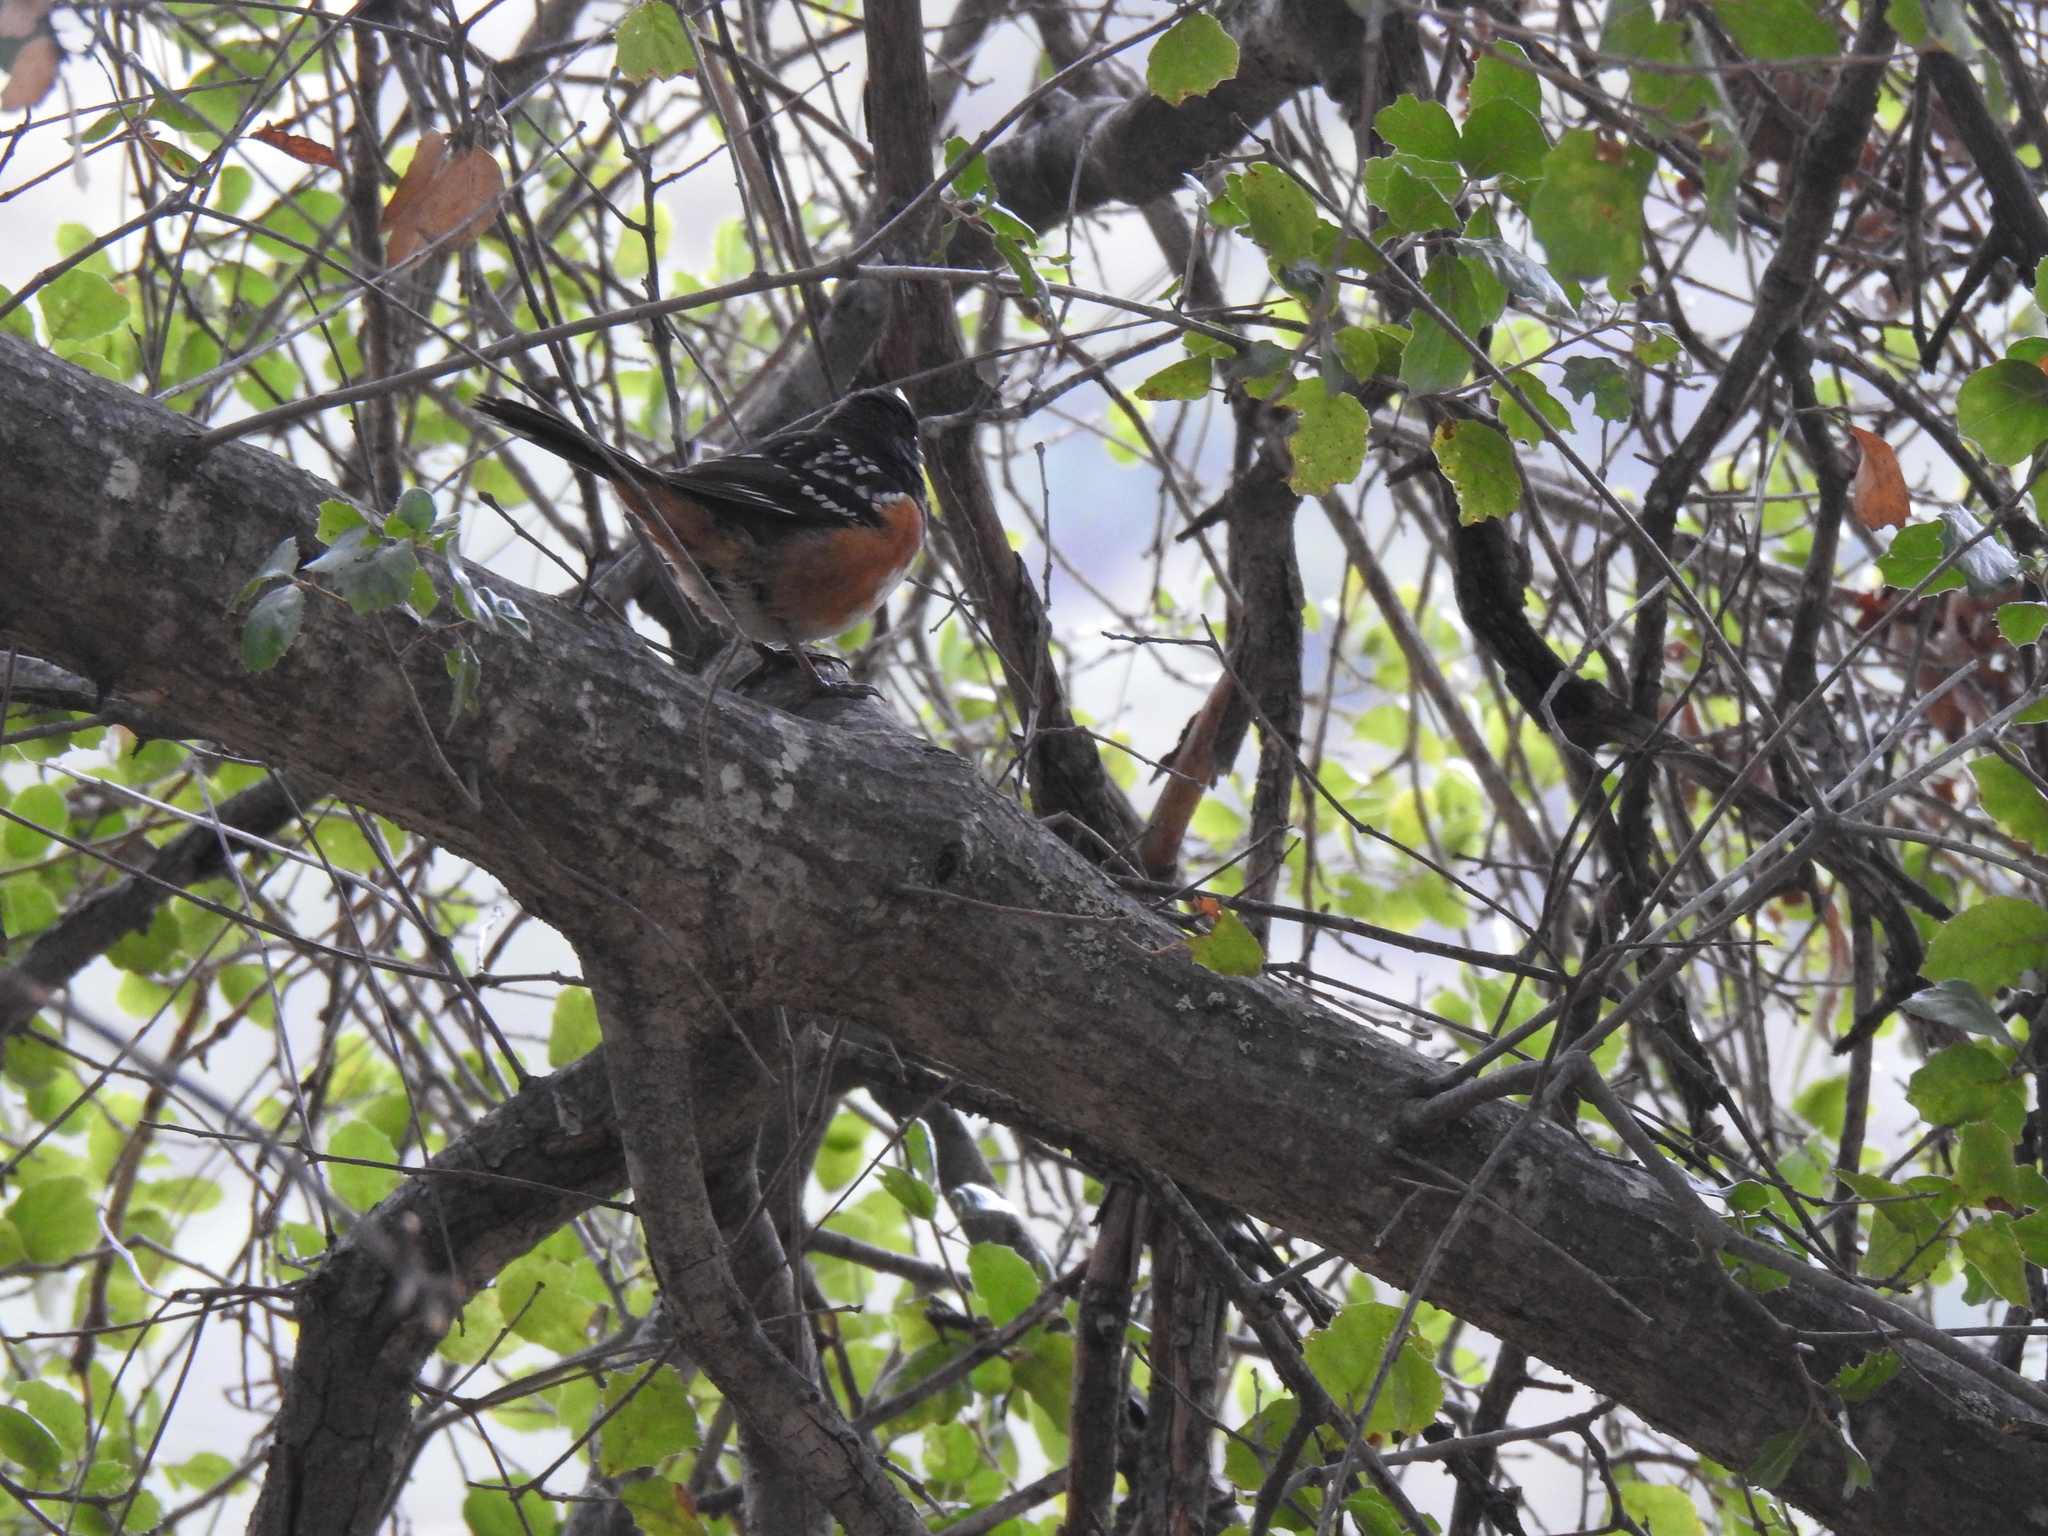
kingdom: Animalia
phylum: Chordata
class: Aves
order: Passeriformes
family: Passerellidae
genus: Pipilo
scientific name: Pipilo maculatus
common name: Spotted towhee
